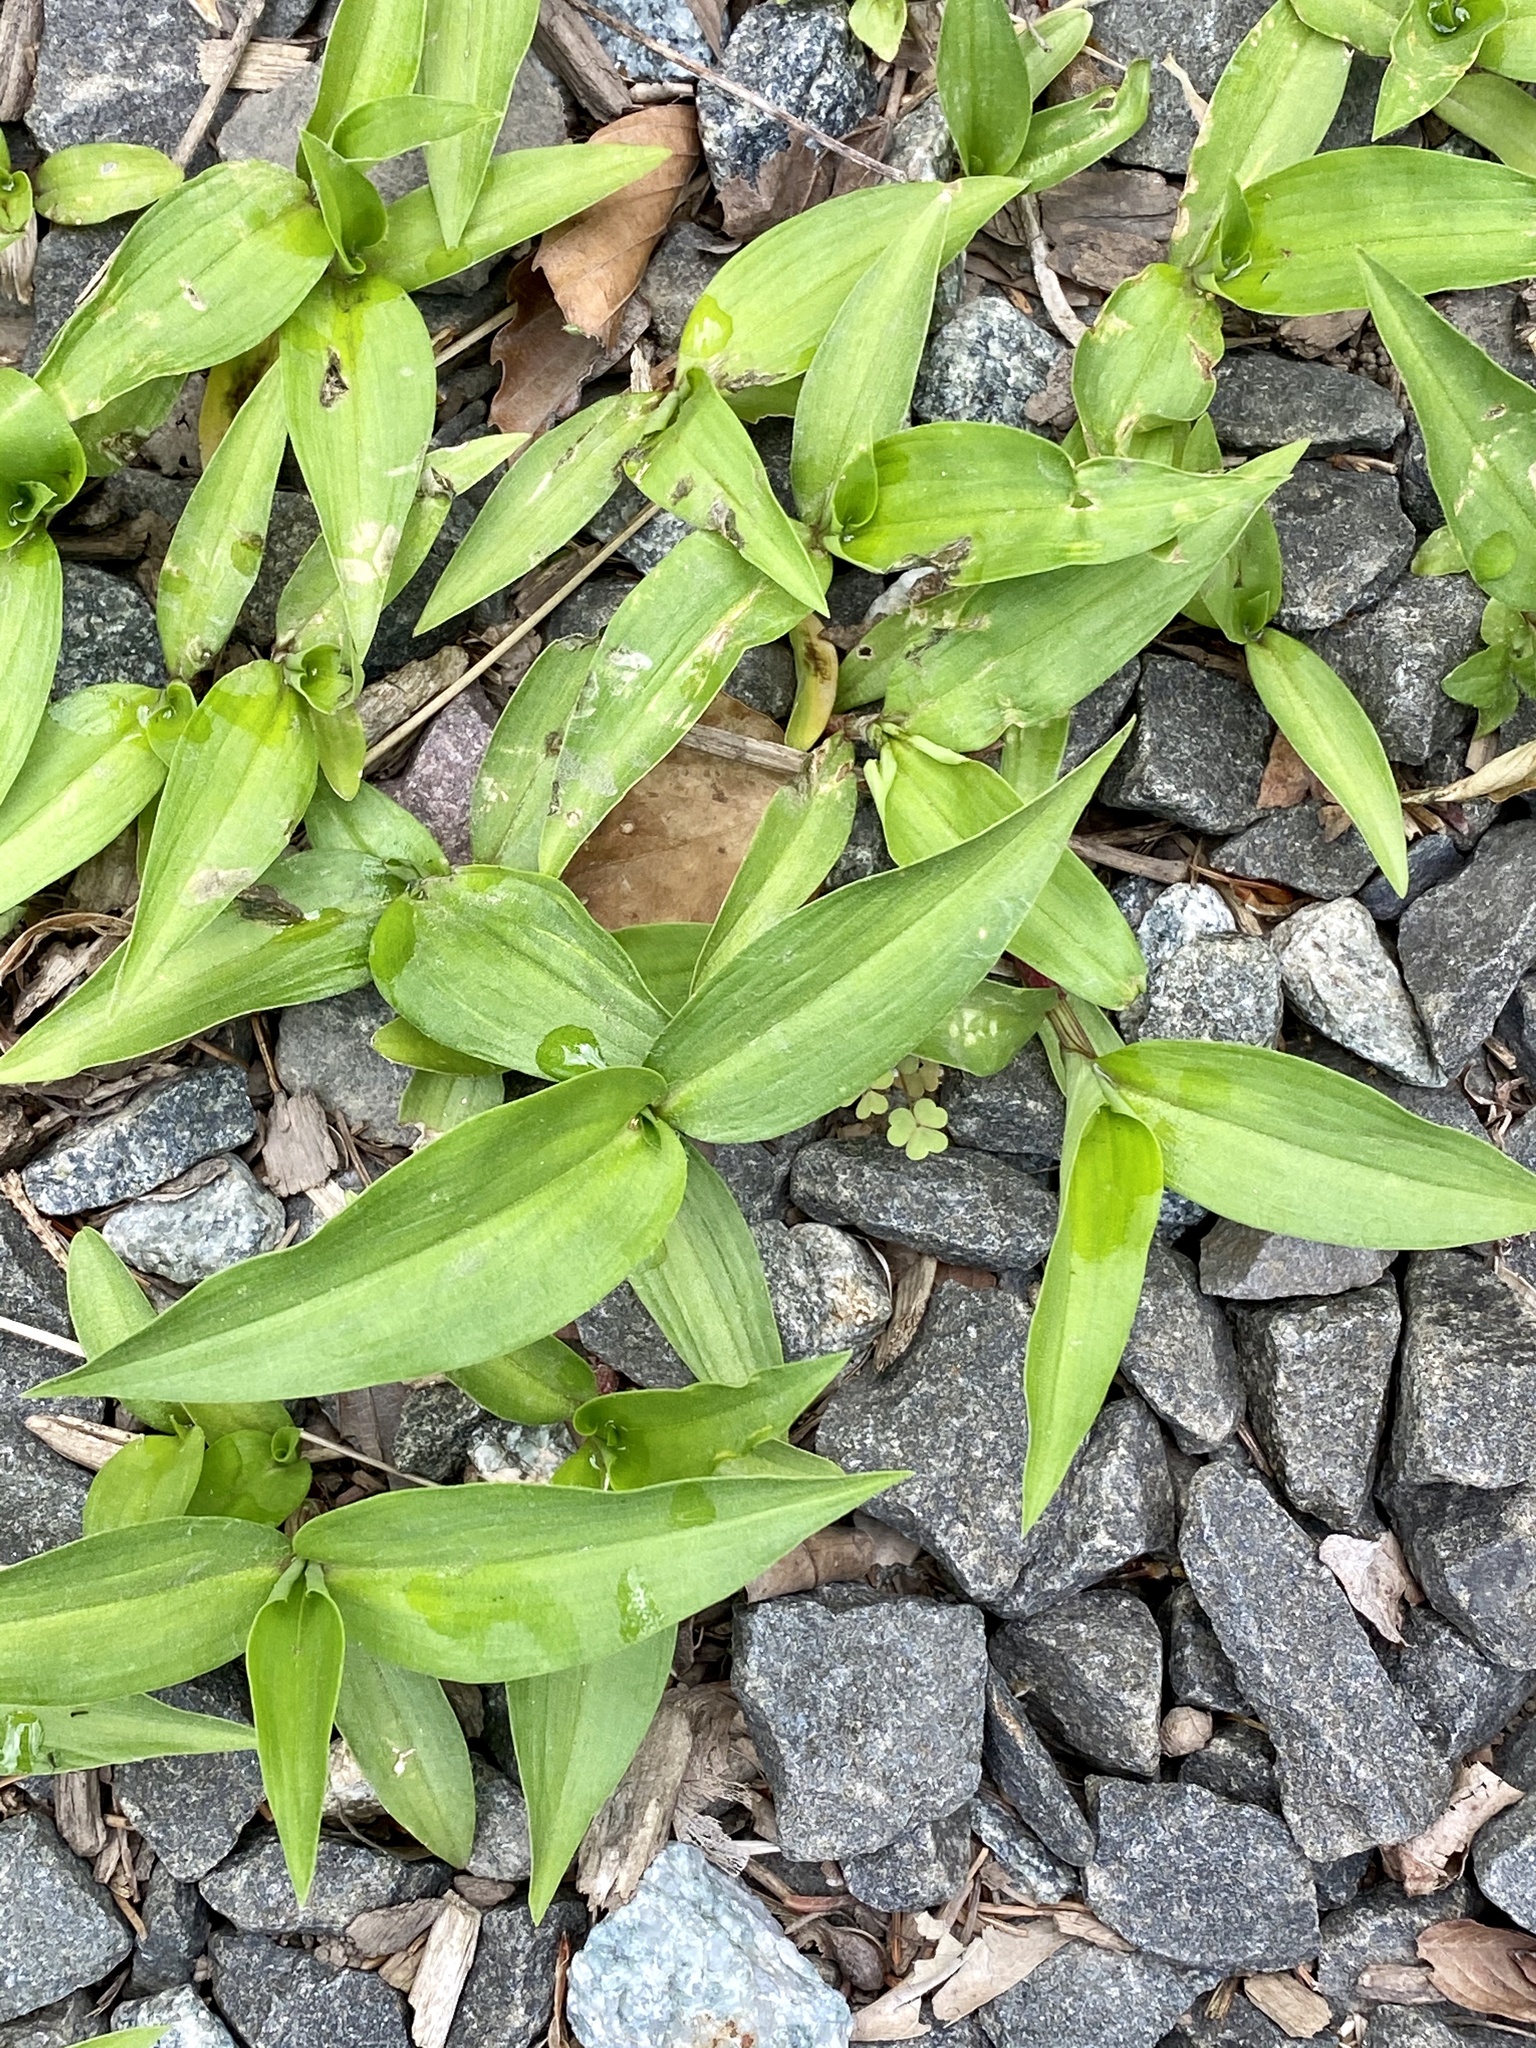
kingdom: Plantae
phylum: Tracheophyta
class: Liliopsida
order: Commelinales
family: Commelinaceae
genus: Commelina
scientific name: Commelina communis
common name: Asiatic dayflower
